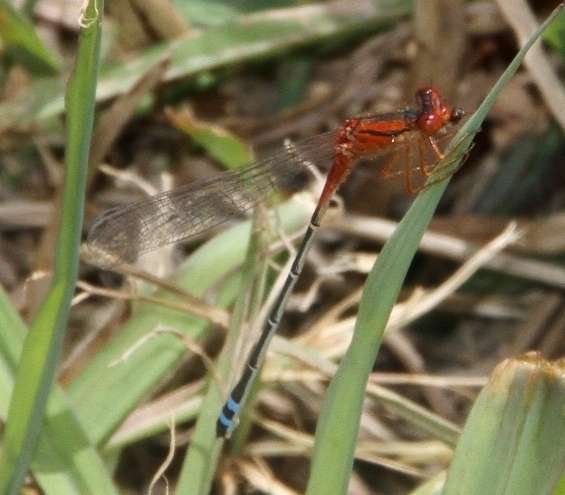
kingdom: Animalia
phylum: Arthropoda
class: Insecta
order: Odonata
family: Coenagrionidae
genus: Xanthagrion
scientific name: Xanthagrion erythroneurum
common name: Red and blue damsel
